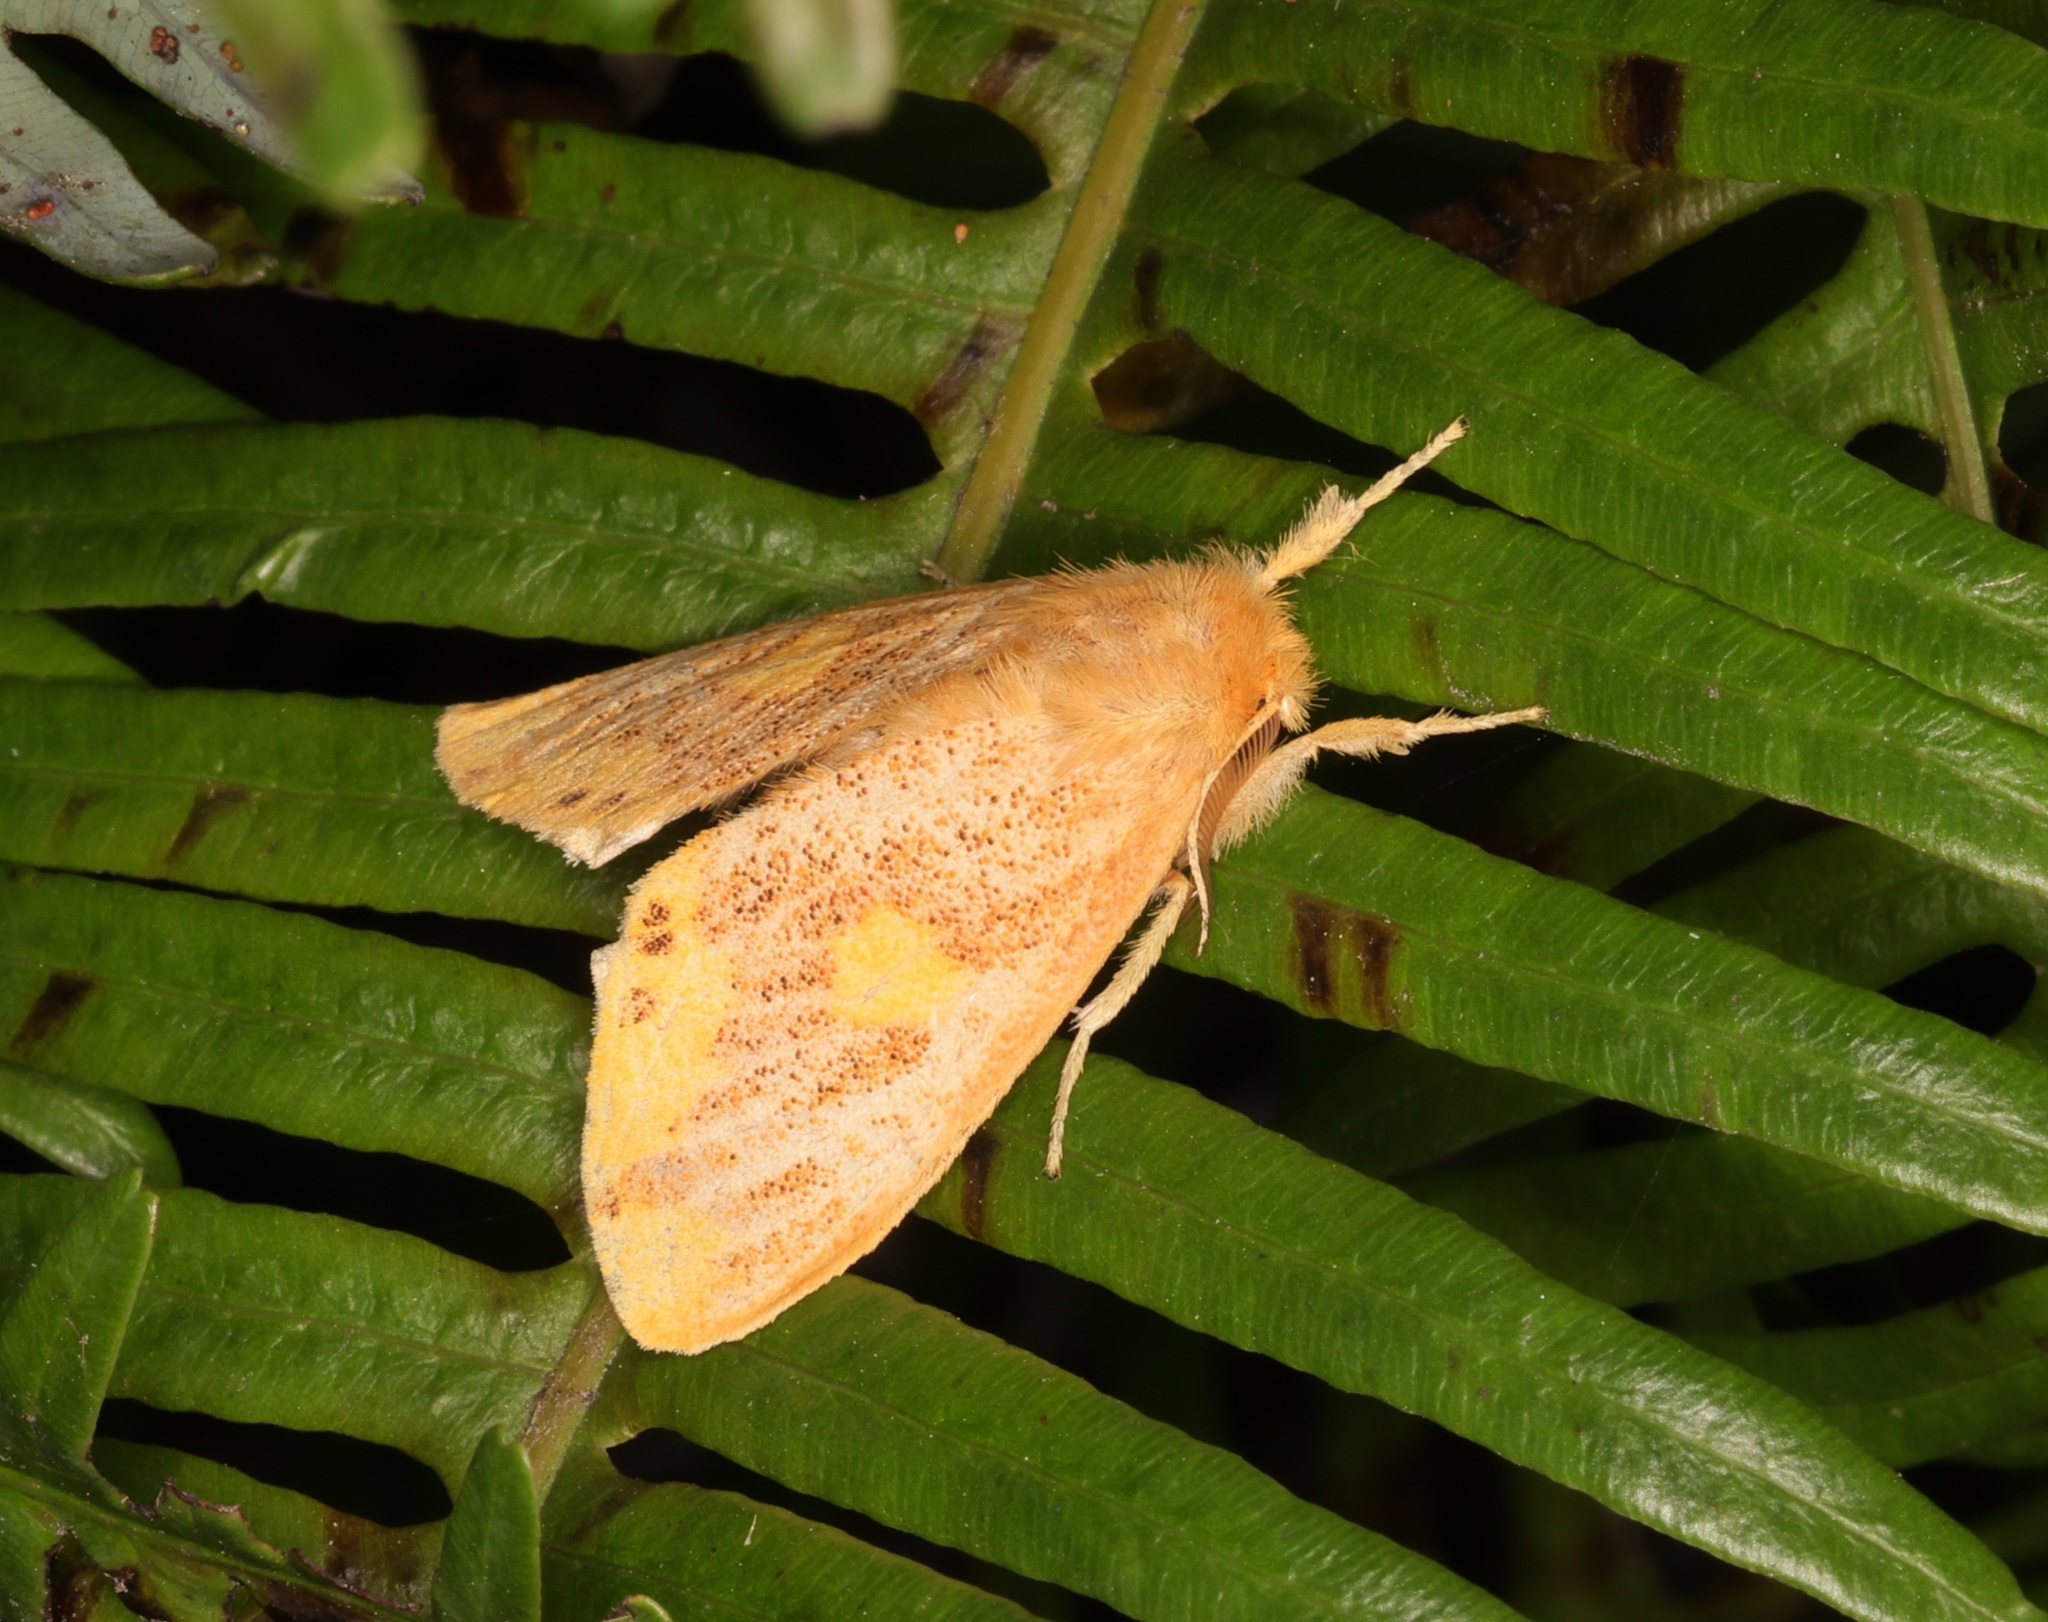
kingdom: Animalia
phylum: Arthropoda
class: Insecta
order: Lepidoptera
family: Erebidae
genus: Euproctis
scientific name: Euproctis quadrangularis
